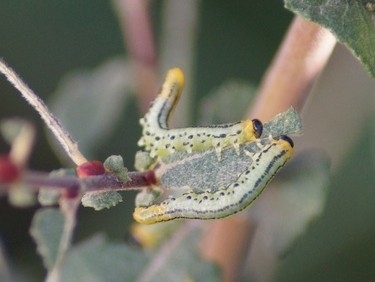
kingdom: Animalia
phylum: Arthropoda
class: Insecta
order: Hymenoptera
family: Tenthredinidae
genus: Nematus
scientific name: Nematus pavidus
